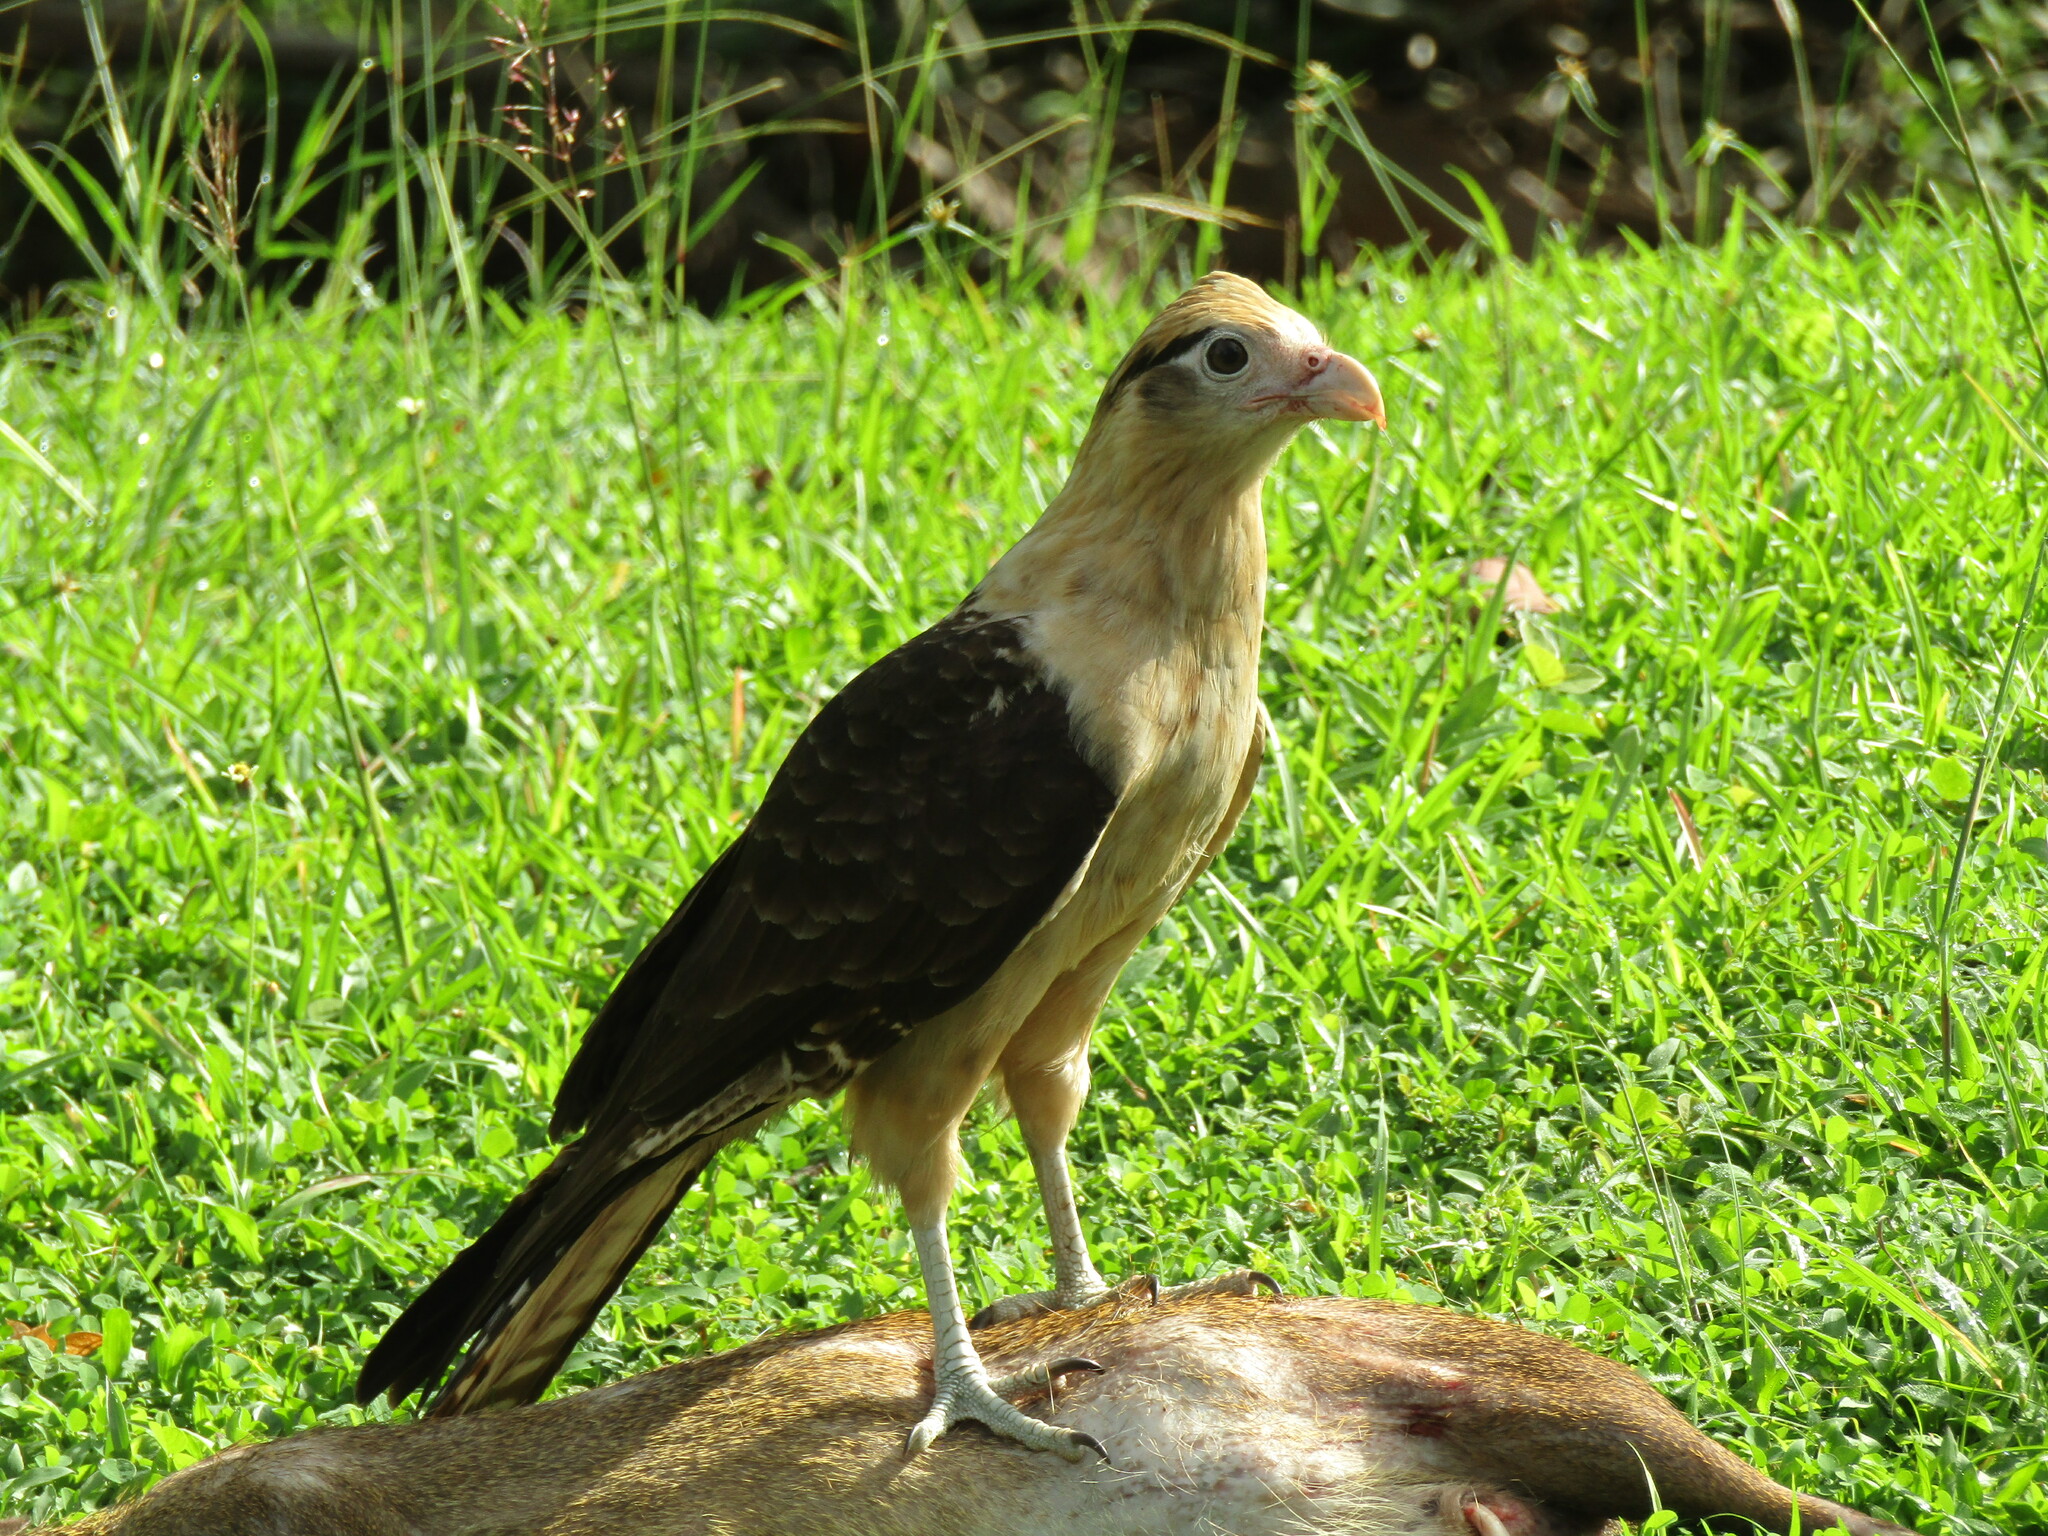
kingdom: Animalia
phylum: Chordata
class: Aves
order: Falconiformes
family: Falconidae
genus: Daptrius
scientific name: Daptrius
